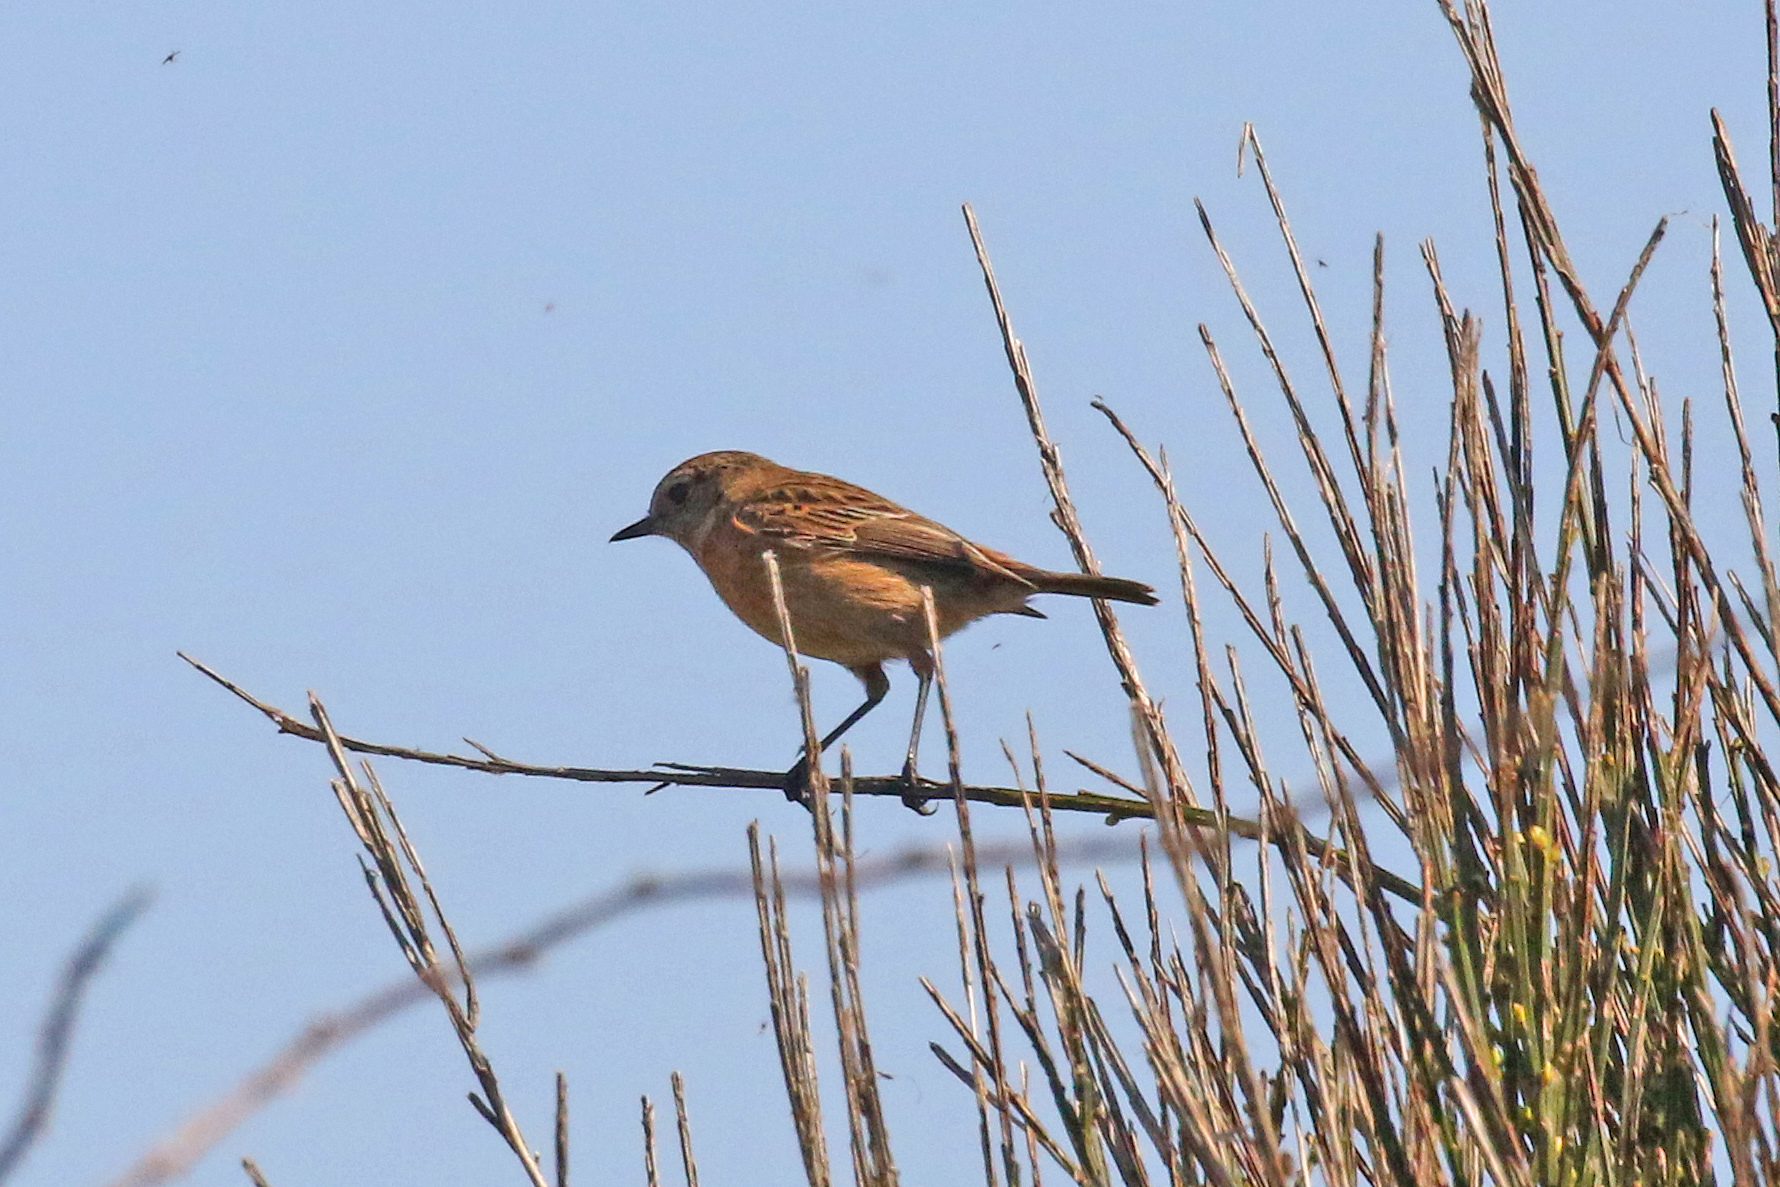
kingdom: Animalia
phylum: Chordata
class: Aves
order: Passeriformes
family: Muscicapidae
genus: Saxicola
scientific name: Saxicola rubicola
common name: European stonechat
